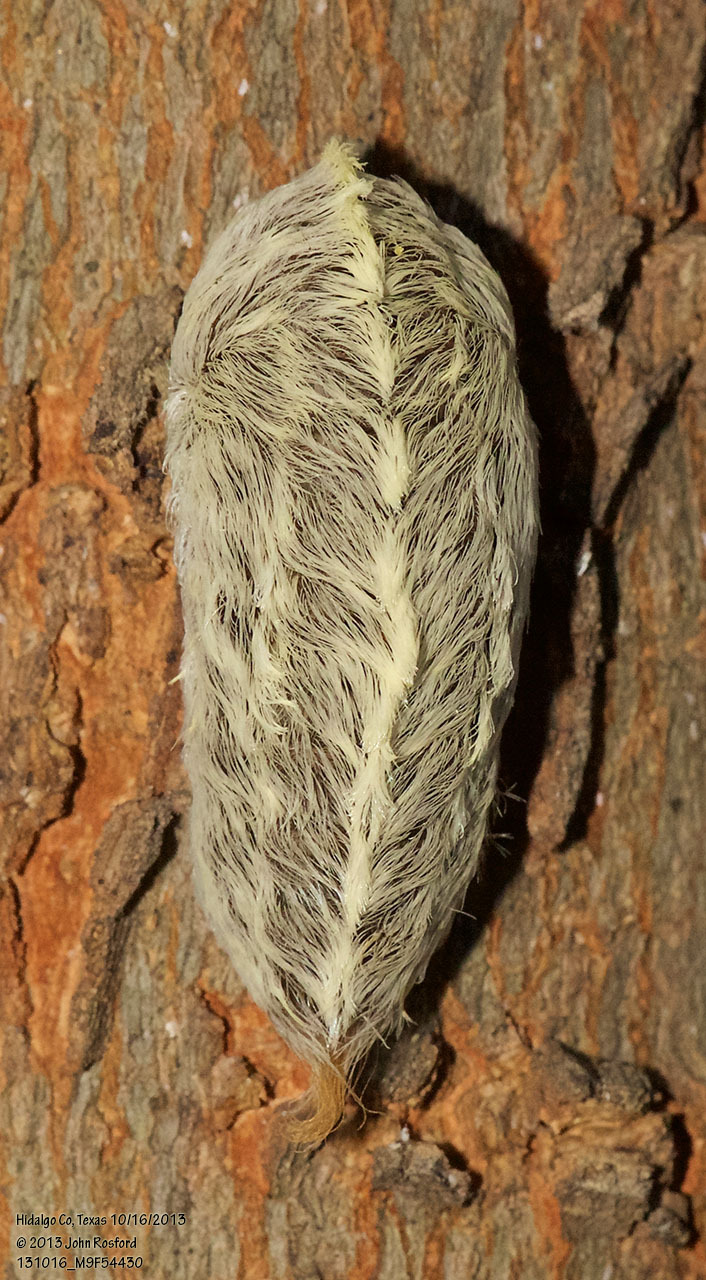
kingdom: Animalia
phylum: Arthropoda
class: Insecta
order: Lepidoptera
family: Megalopygidae
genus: Megalopyge
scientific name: Megalopyge opercularis
